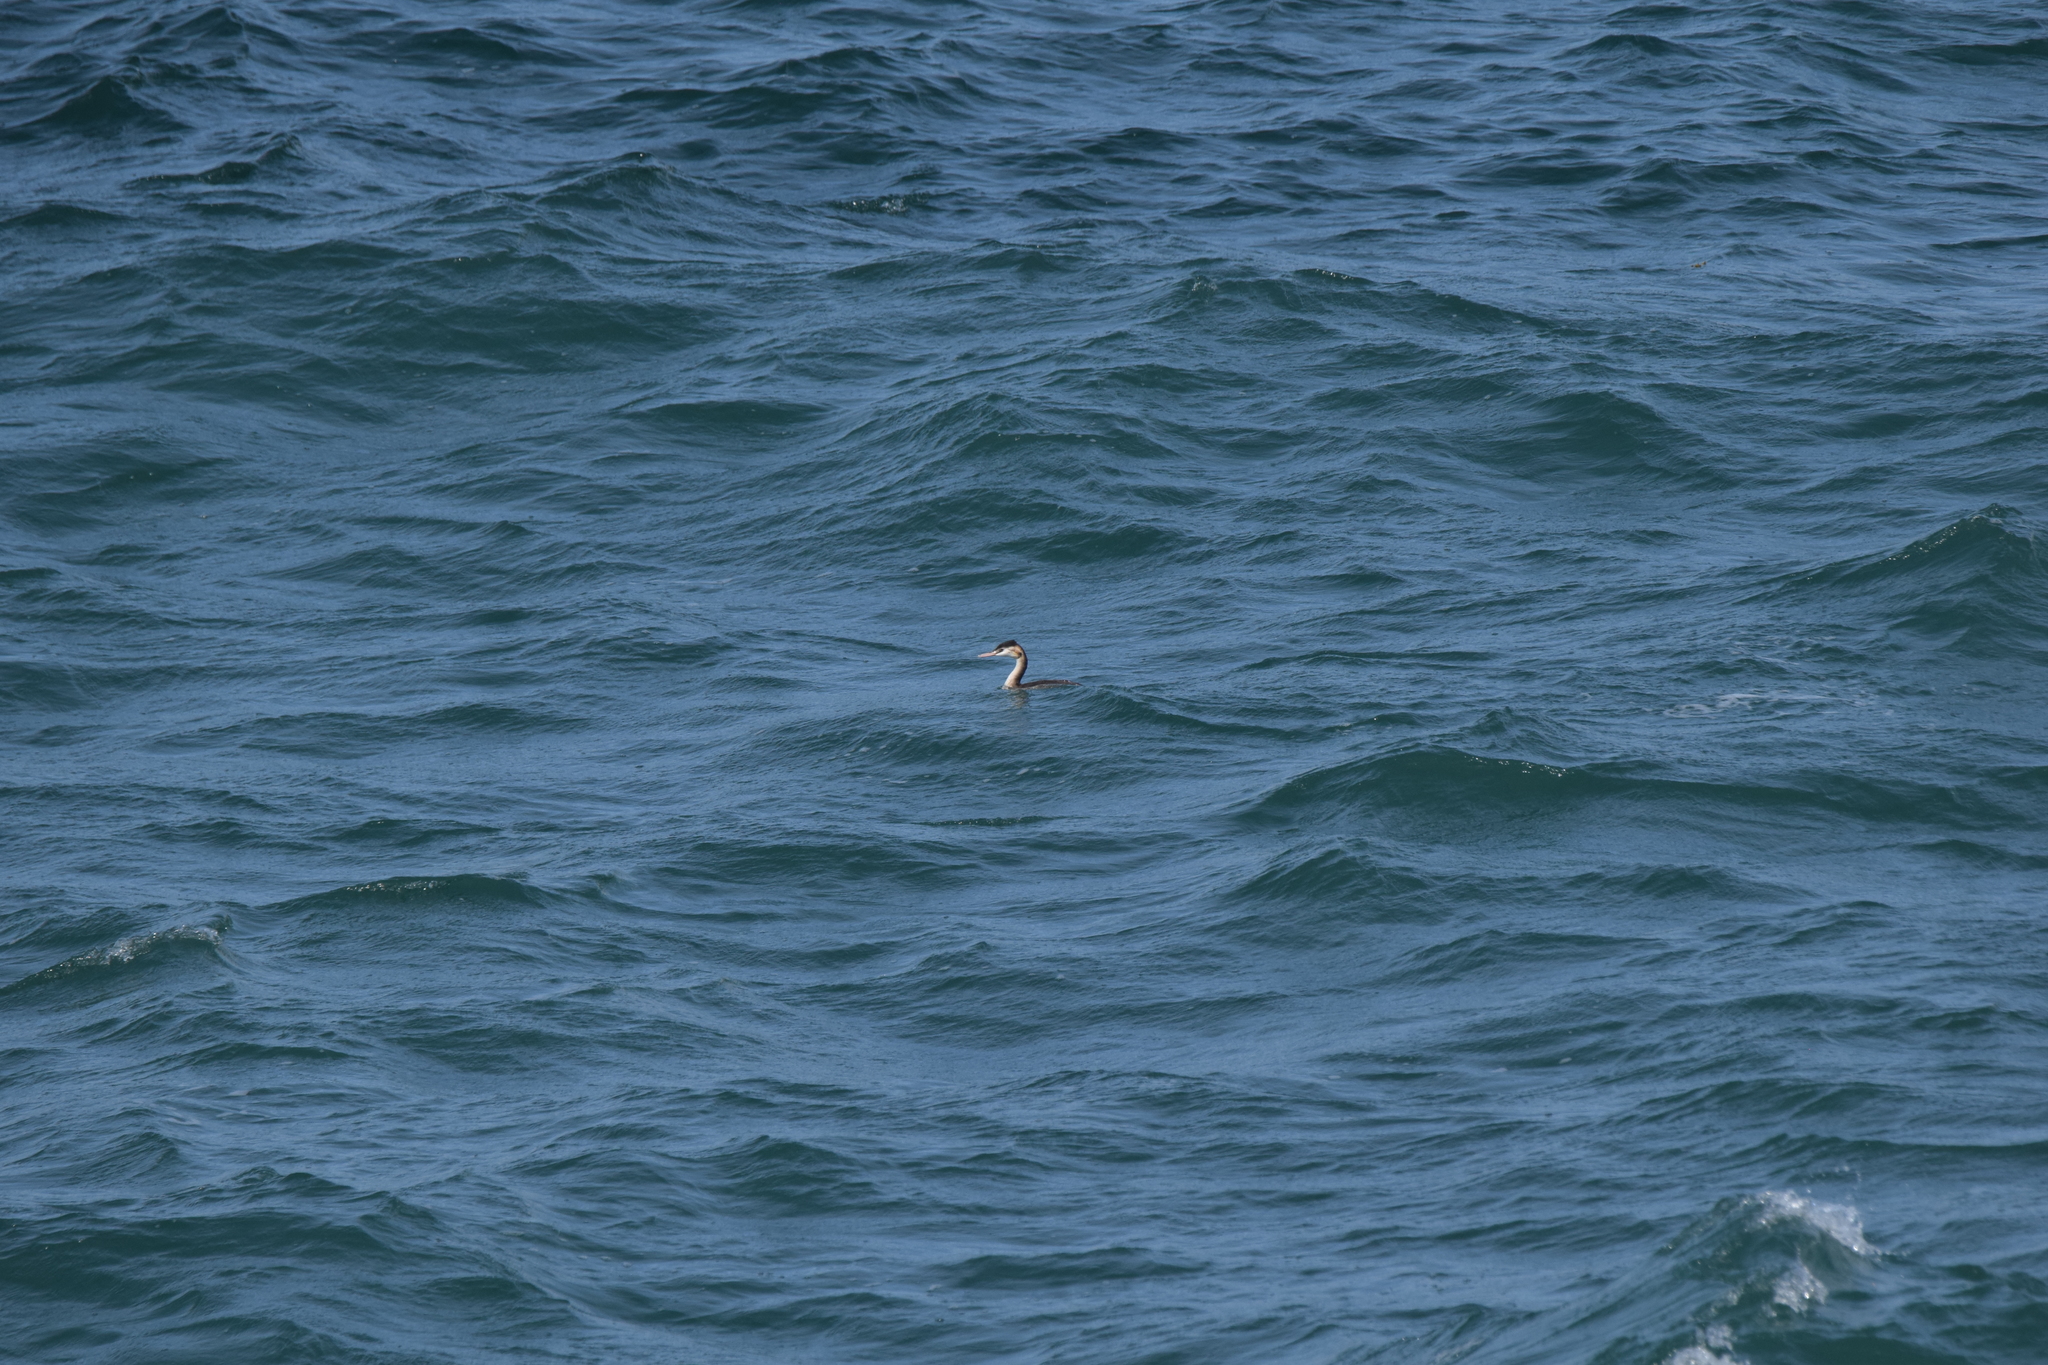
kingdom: Animalia
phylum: Chordata
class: Aves
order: Podicipediformes
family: Podicipedidae
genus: Podiceps
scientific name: Podiceps cristatus
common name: Great crested grebe
